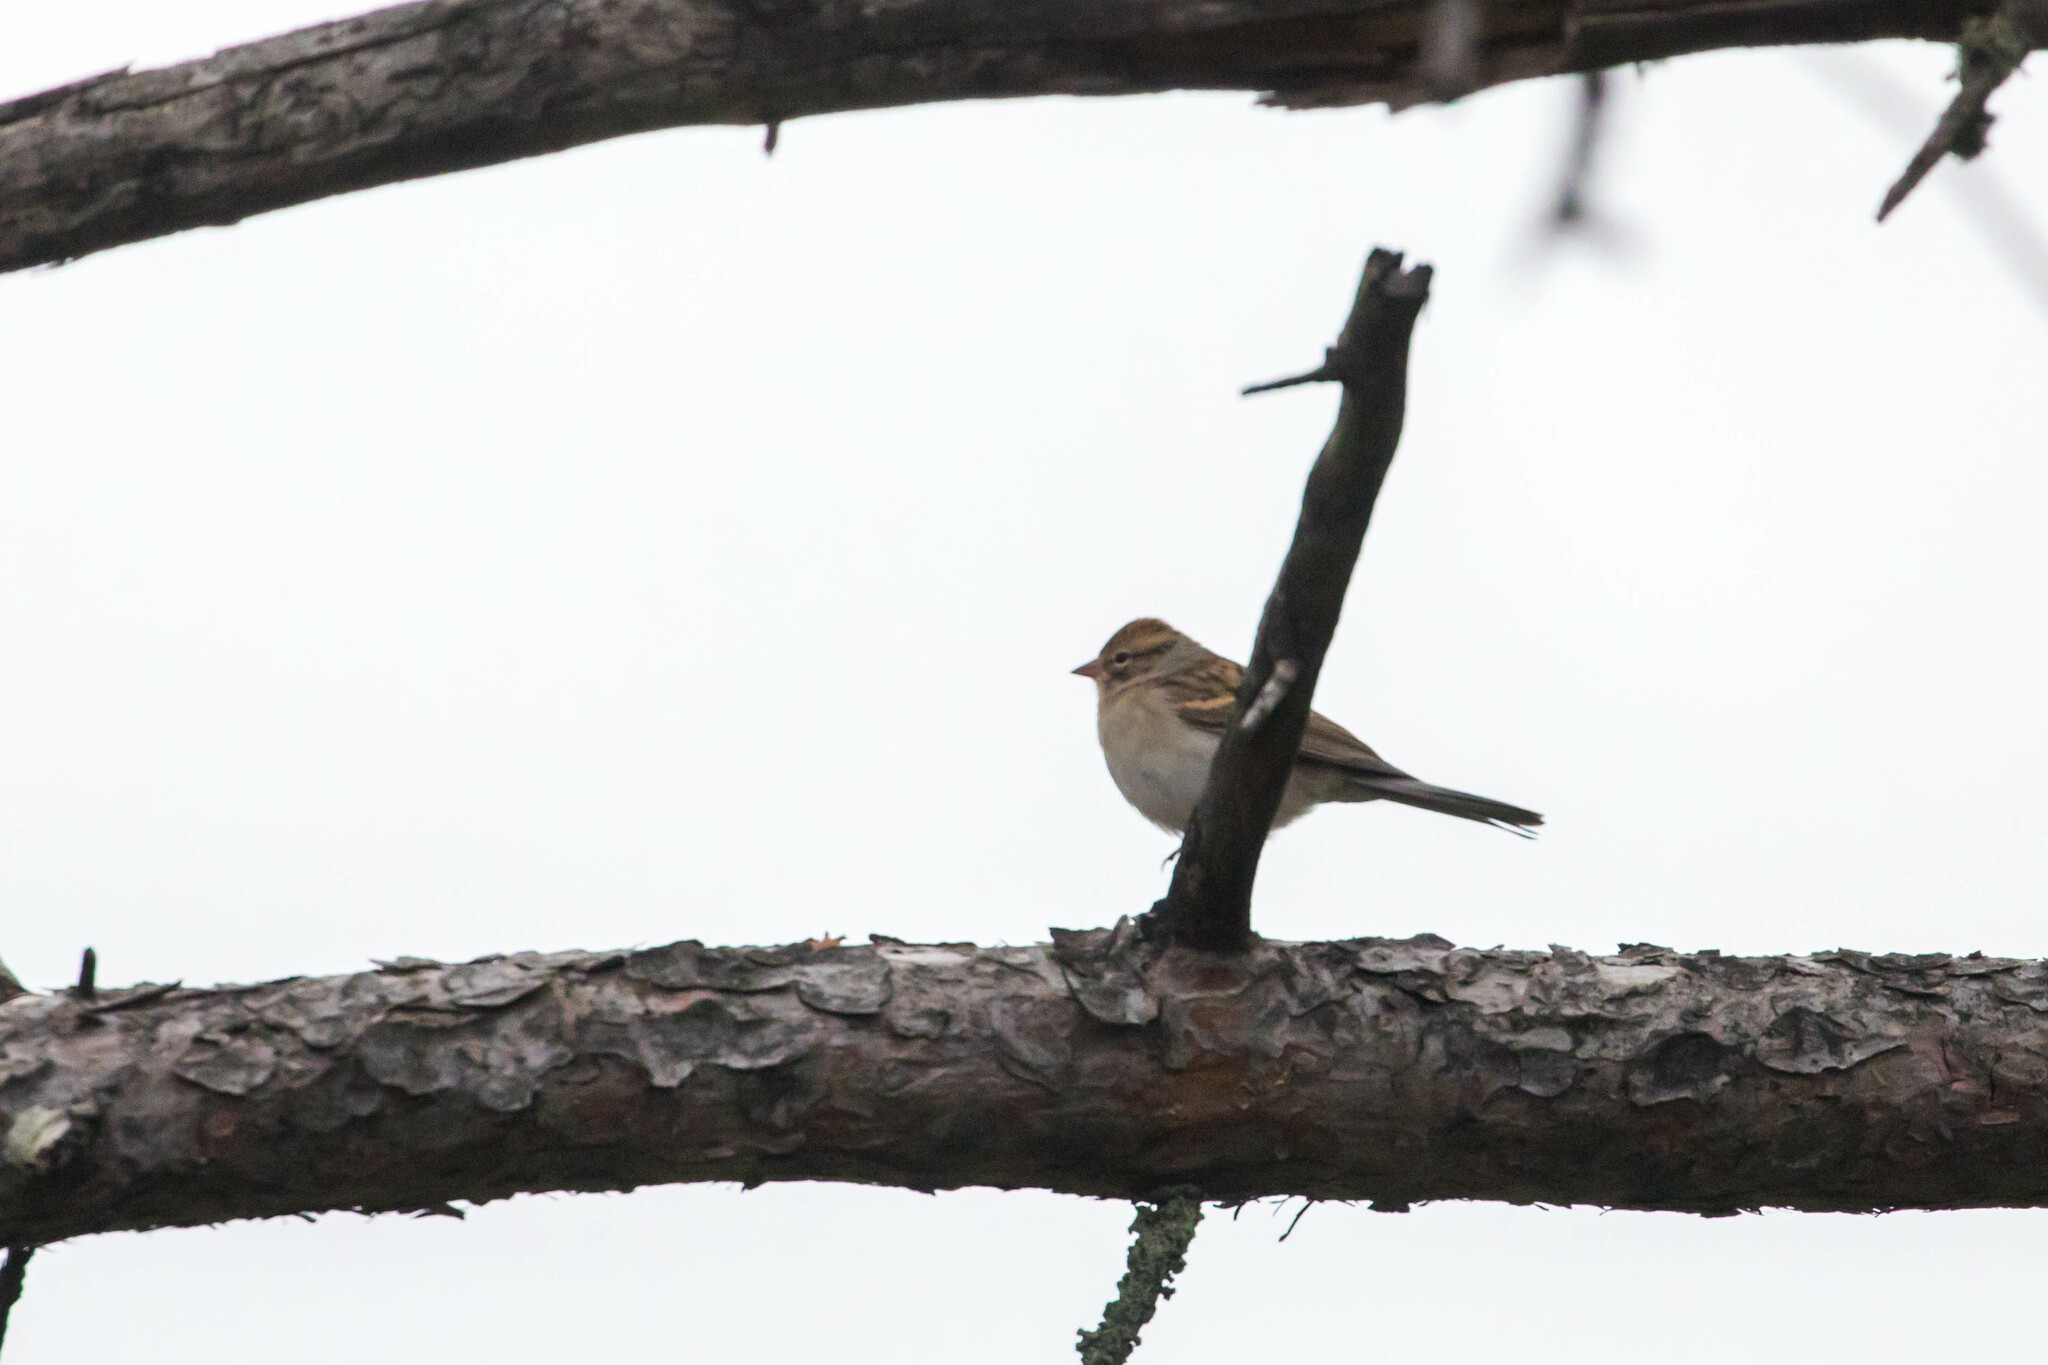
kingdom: Animalia
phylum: Chordata
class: Aves
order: Passeriformes
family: Passerellidae
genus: Spizella
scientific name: Spizella passerina
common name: Chipping sparrow
